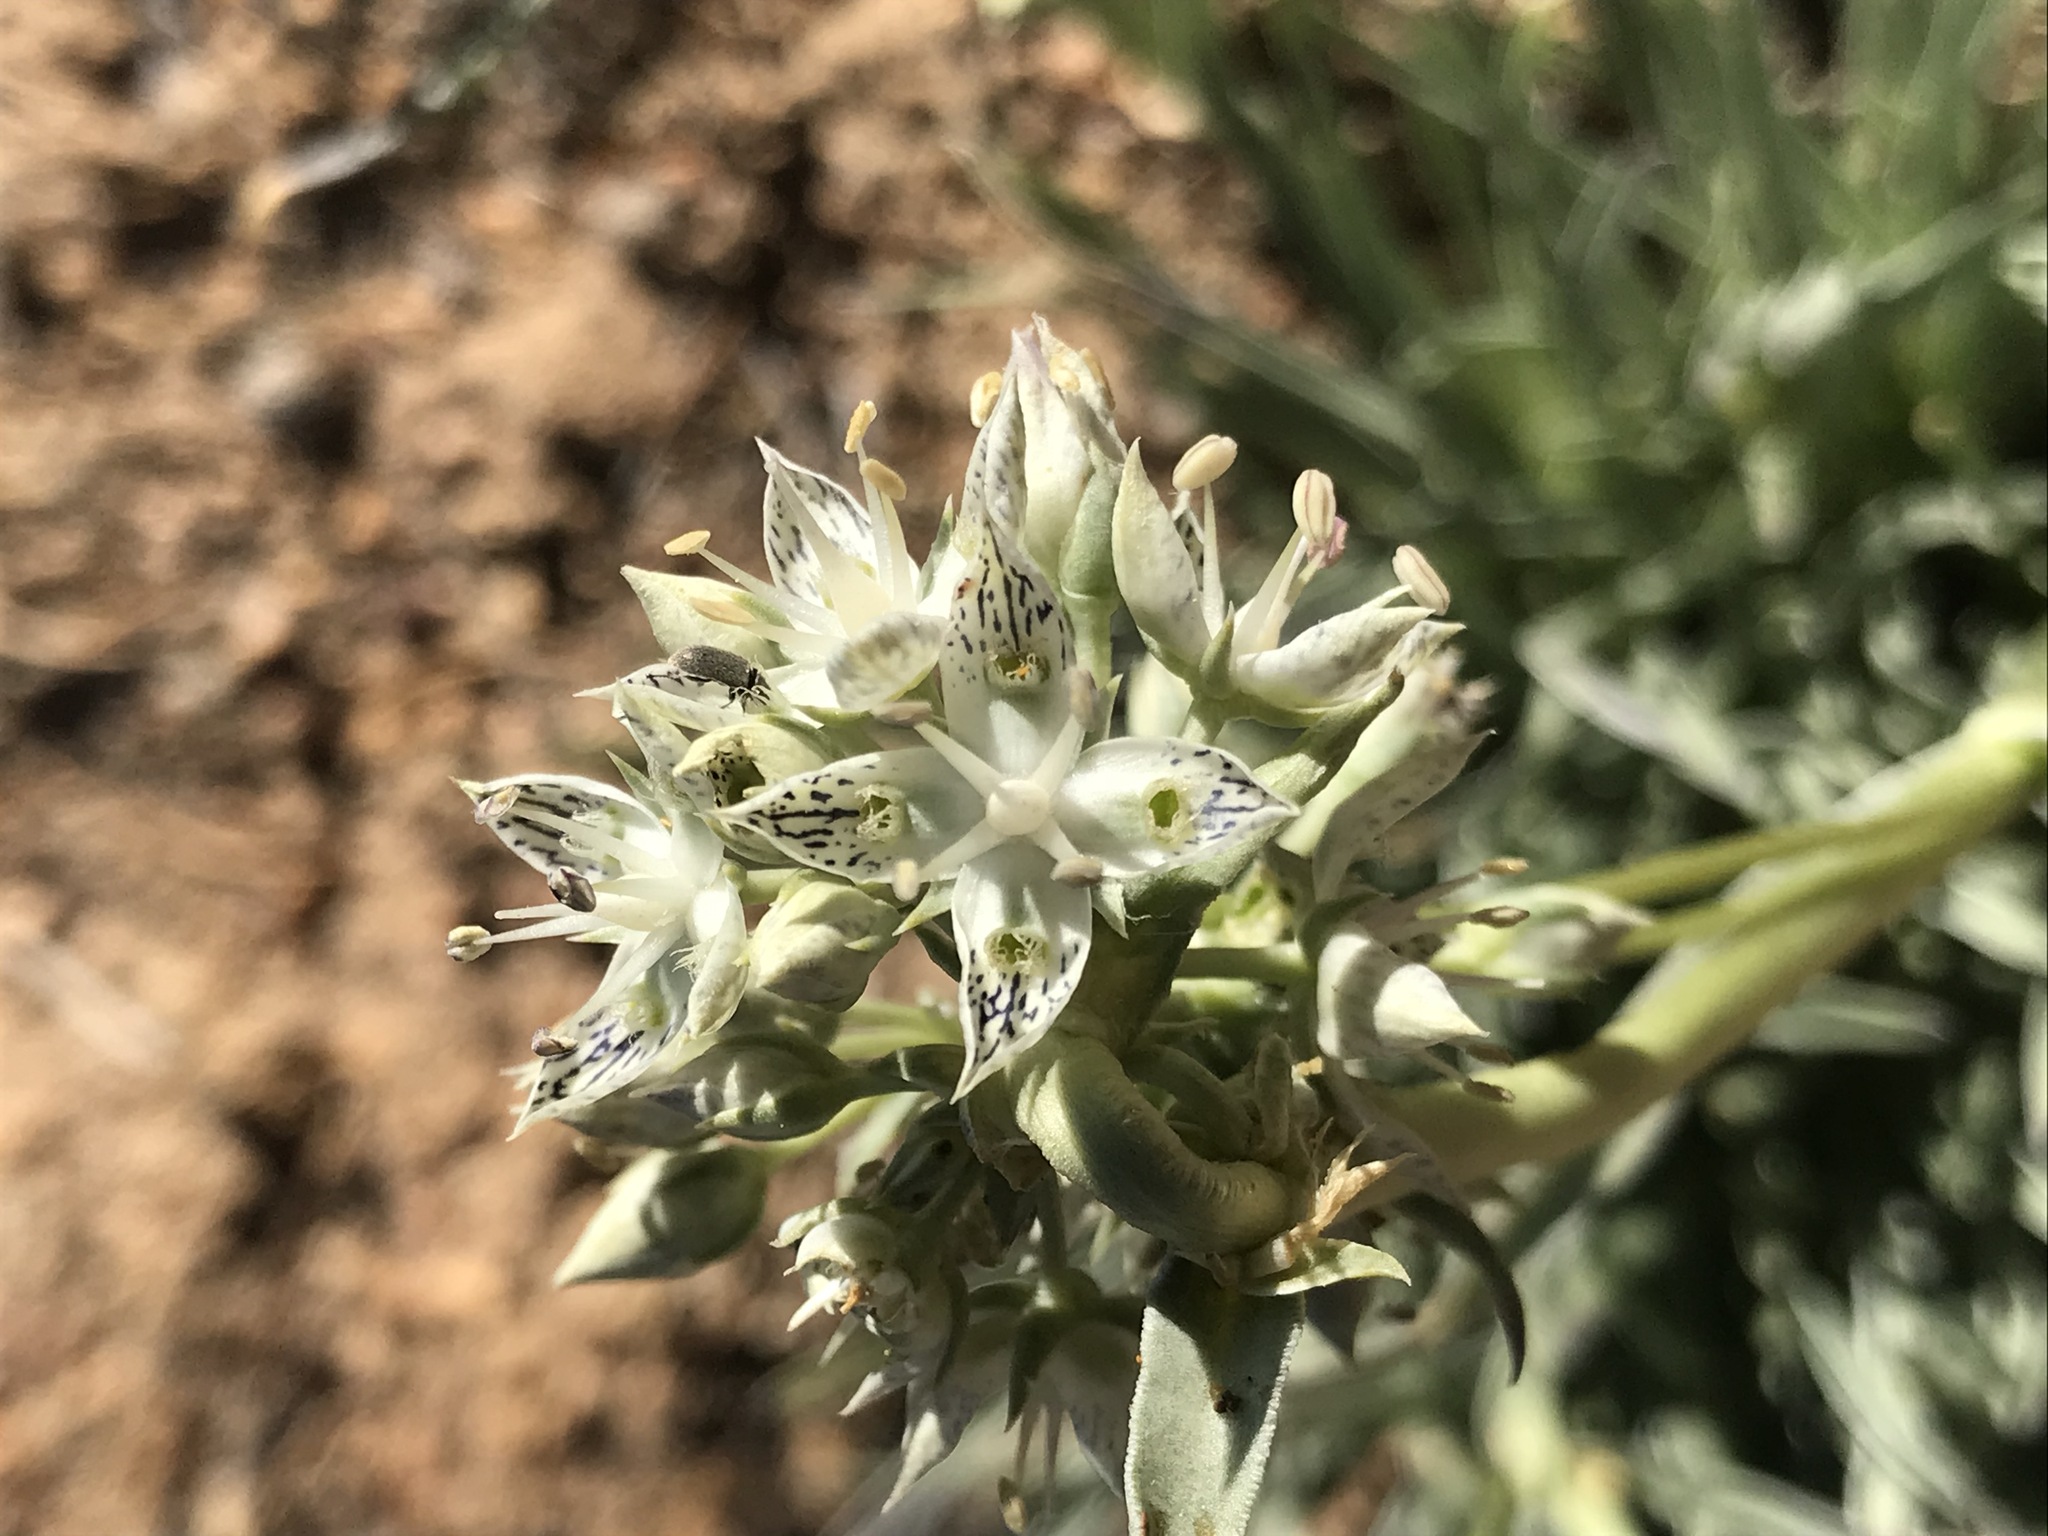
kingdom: Plantae
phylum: Tracheophyta
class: Magnoliopsida
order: Gentianales
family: Gentianaceae
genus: Frasera
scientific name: Frasera neglecta
